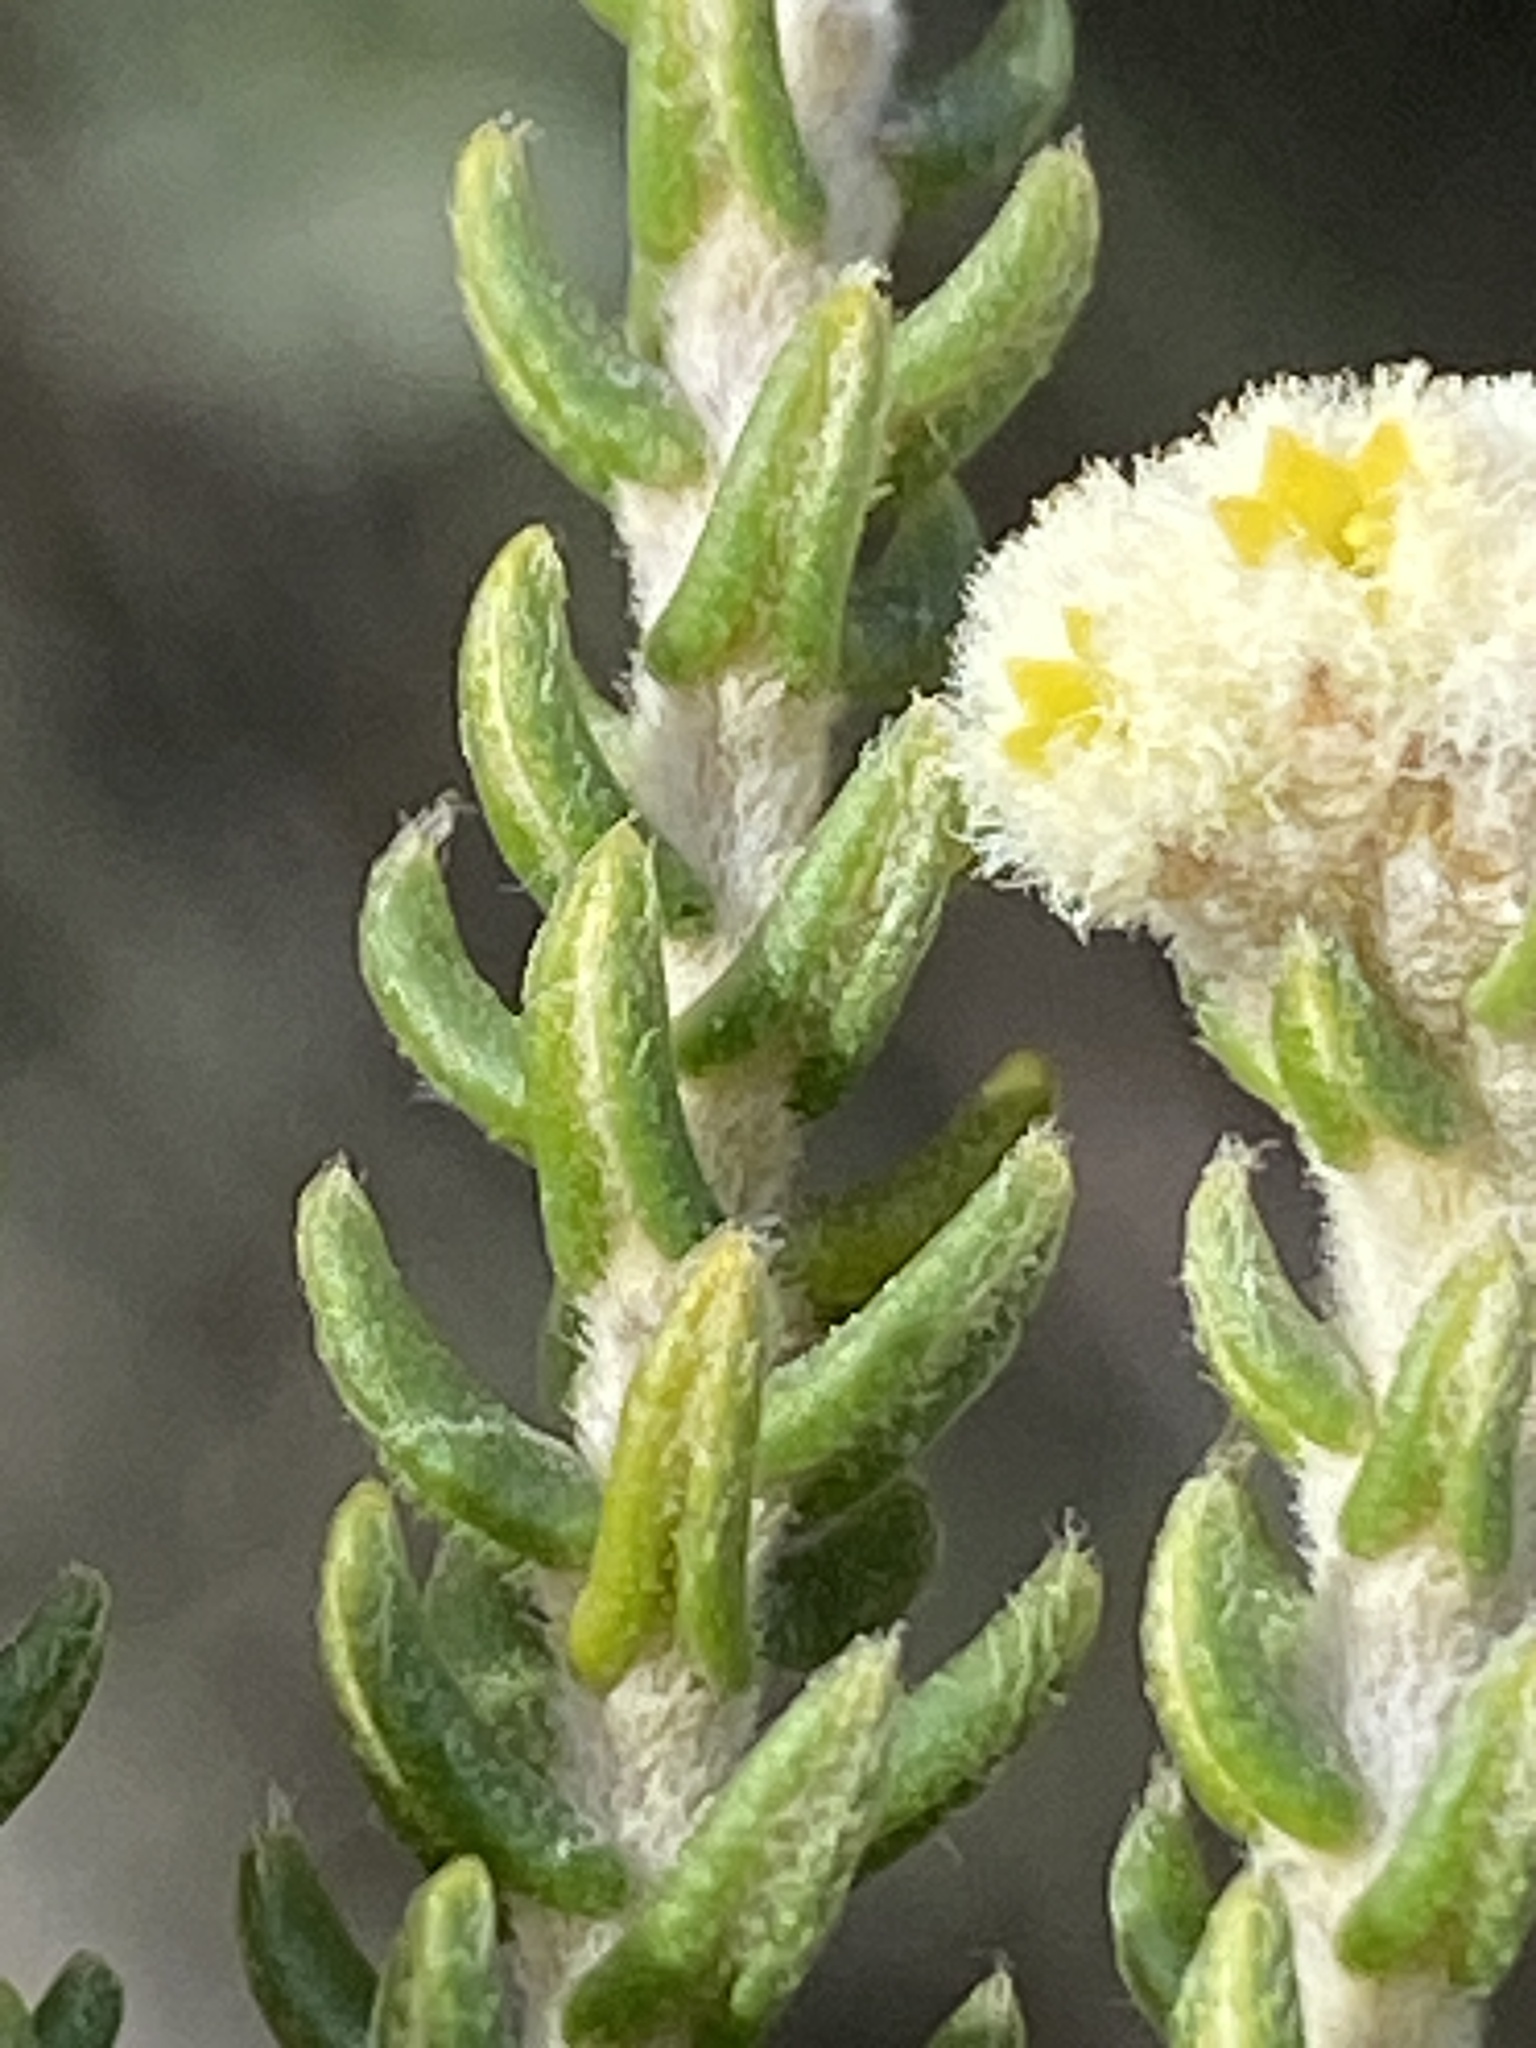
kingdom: Plantae
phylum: Tracheophyta
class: Magnoliopsida
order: Rosales
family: Rhamnaceae
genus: Phylica
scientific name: Phylica laevigata
